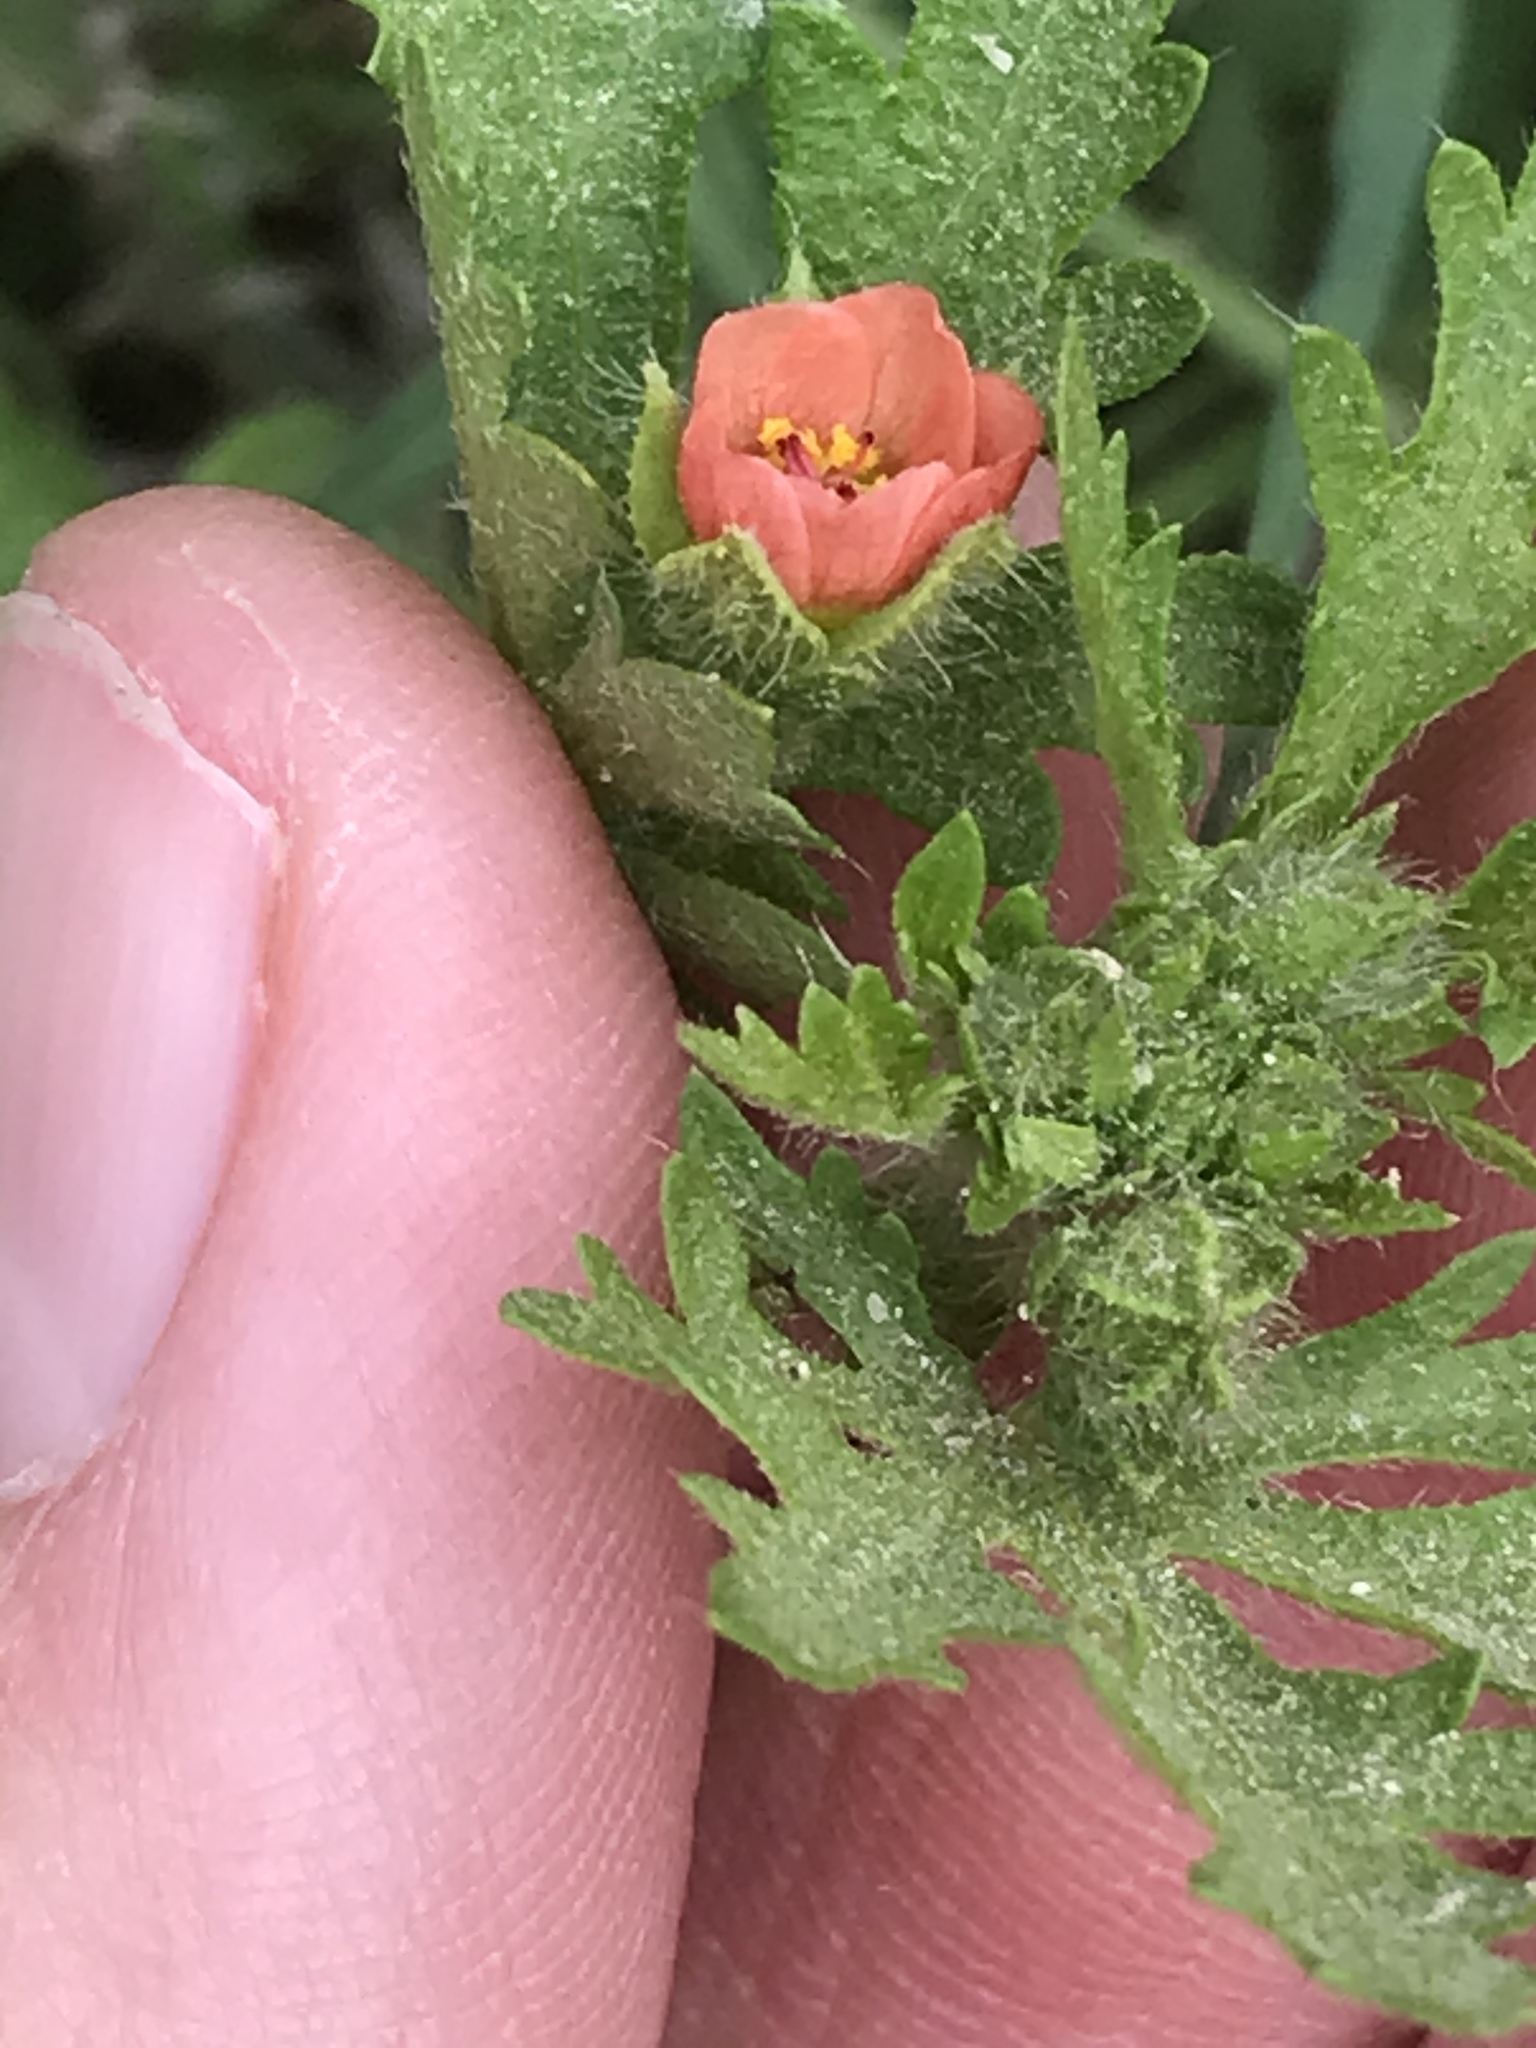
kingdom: Plantae
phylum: Tracheophyta
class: Magnoliopsida
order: Malvales
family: Malvaceae
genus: Modiola
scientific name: Modiola caroliniana
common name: Carolina bristlemallow
